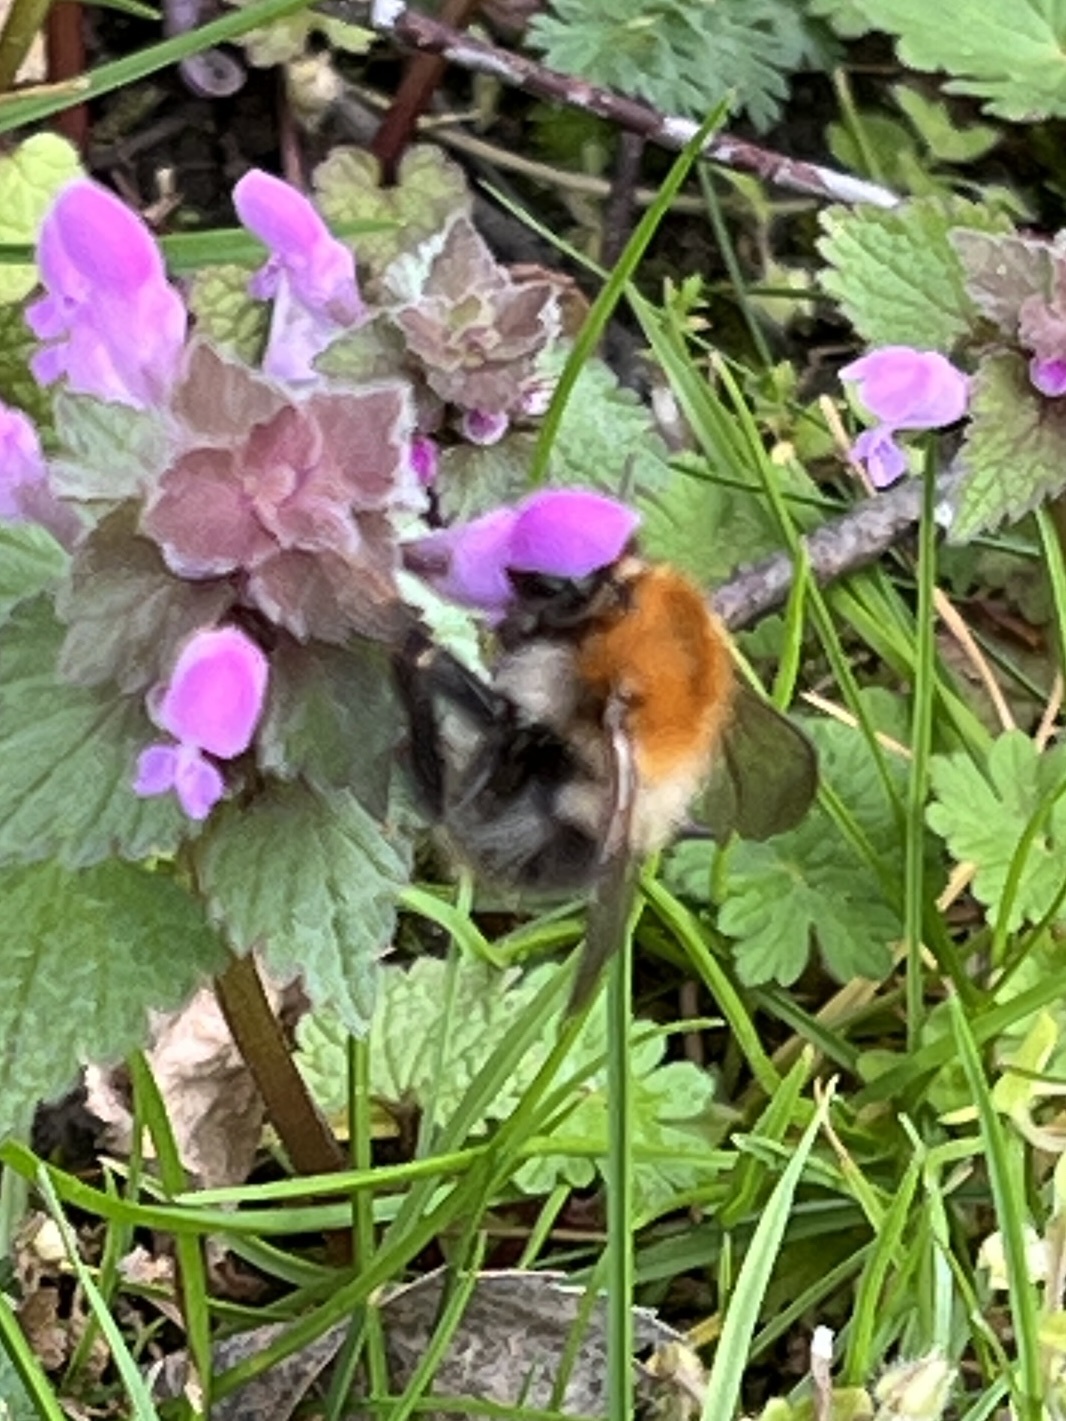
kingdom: Animalia
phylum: Arthropoda
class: Insecta
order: Hymenoptera
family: Apidae
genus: Bombus
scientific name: Bombus pascuorum
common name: Common carder bee
